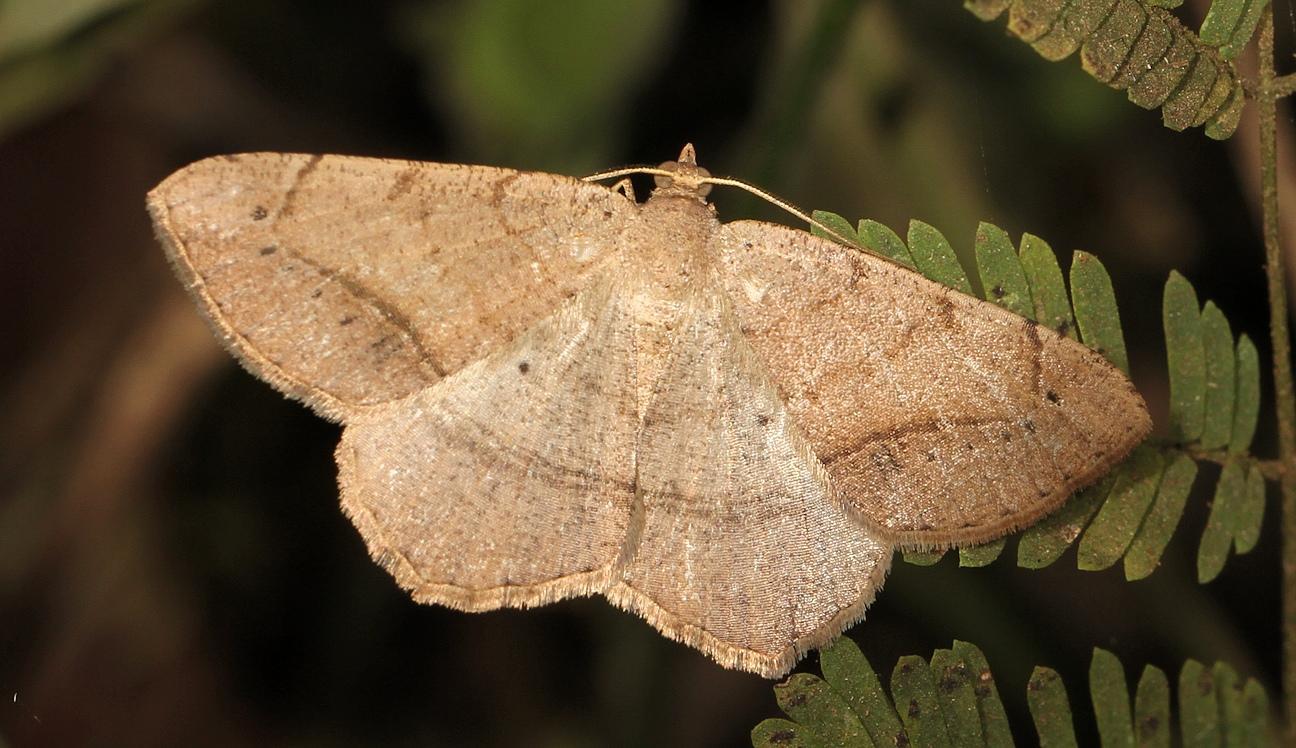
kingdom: Animalia
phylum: Arthropoda
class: Insecta
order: Lepidoptera
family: Geometridae
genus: Chiasmia
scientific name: Chiasmia brongusaria
